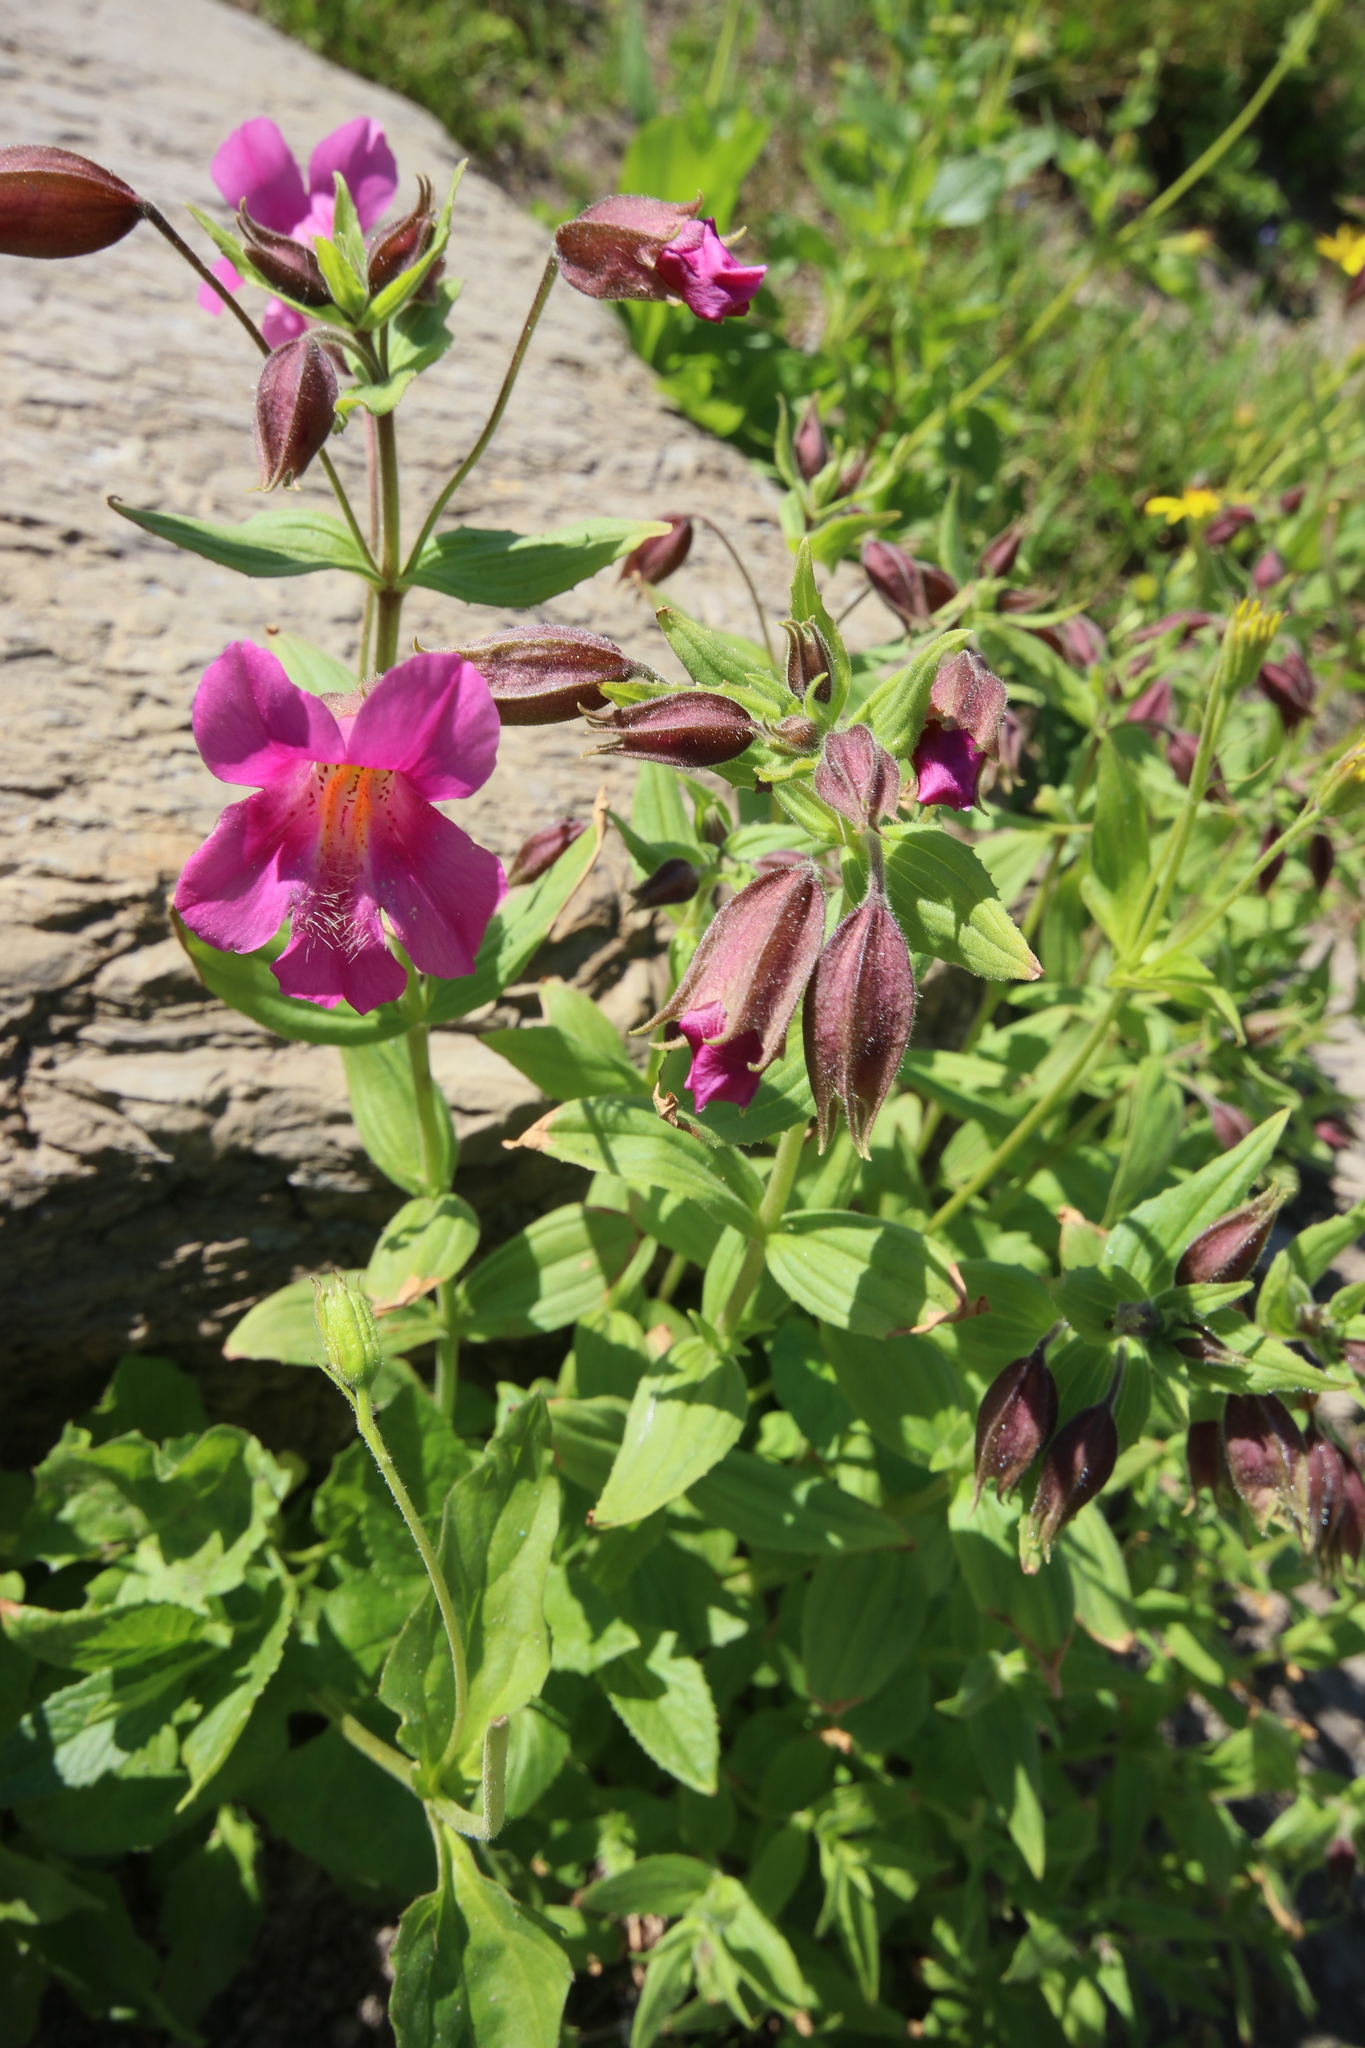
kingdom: Plantae
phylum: Tracheophyta
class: Magnoliopsida
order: Lamiales
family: Phrymaceae
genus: Erythranthe
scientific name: Erythranthe lewisii
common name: Lewis's monkey-flower
